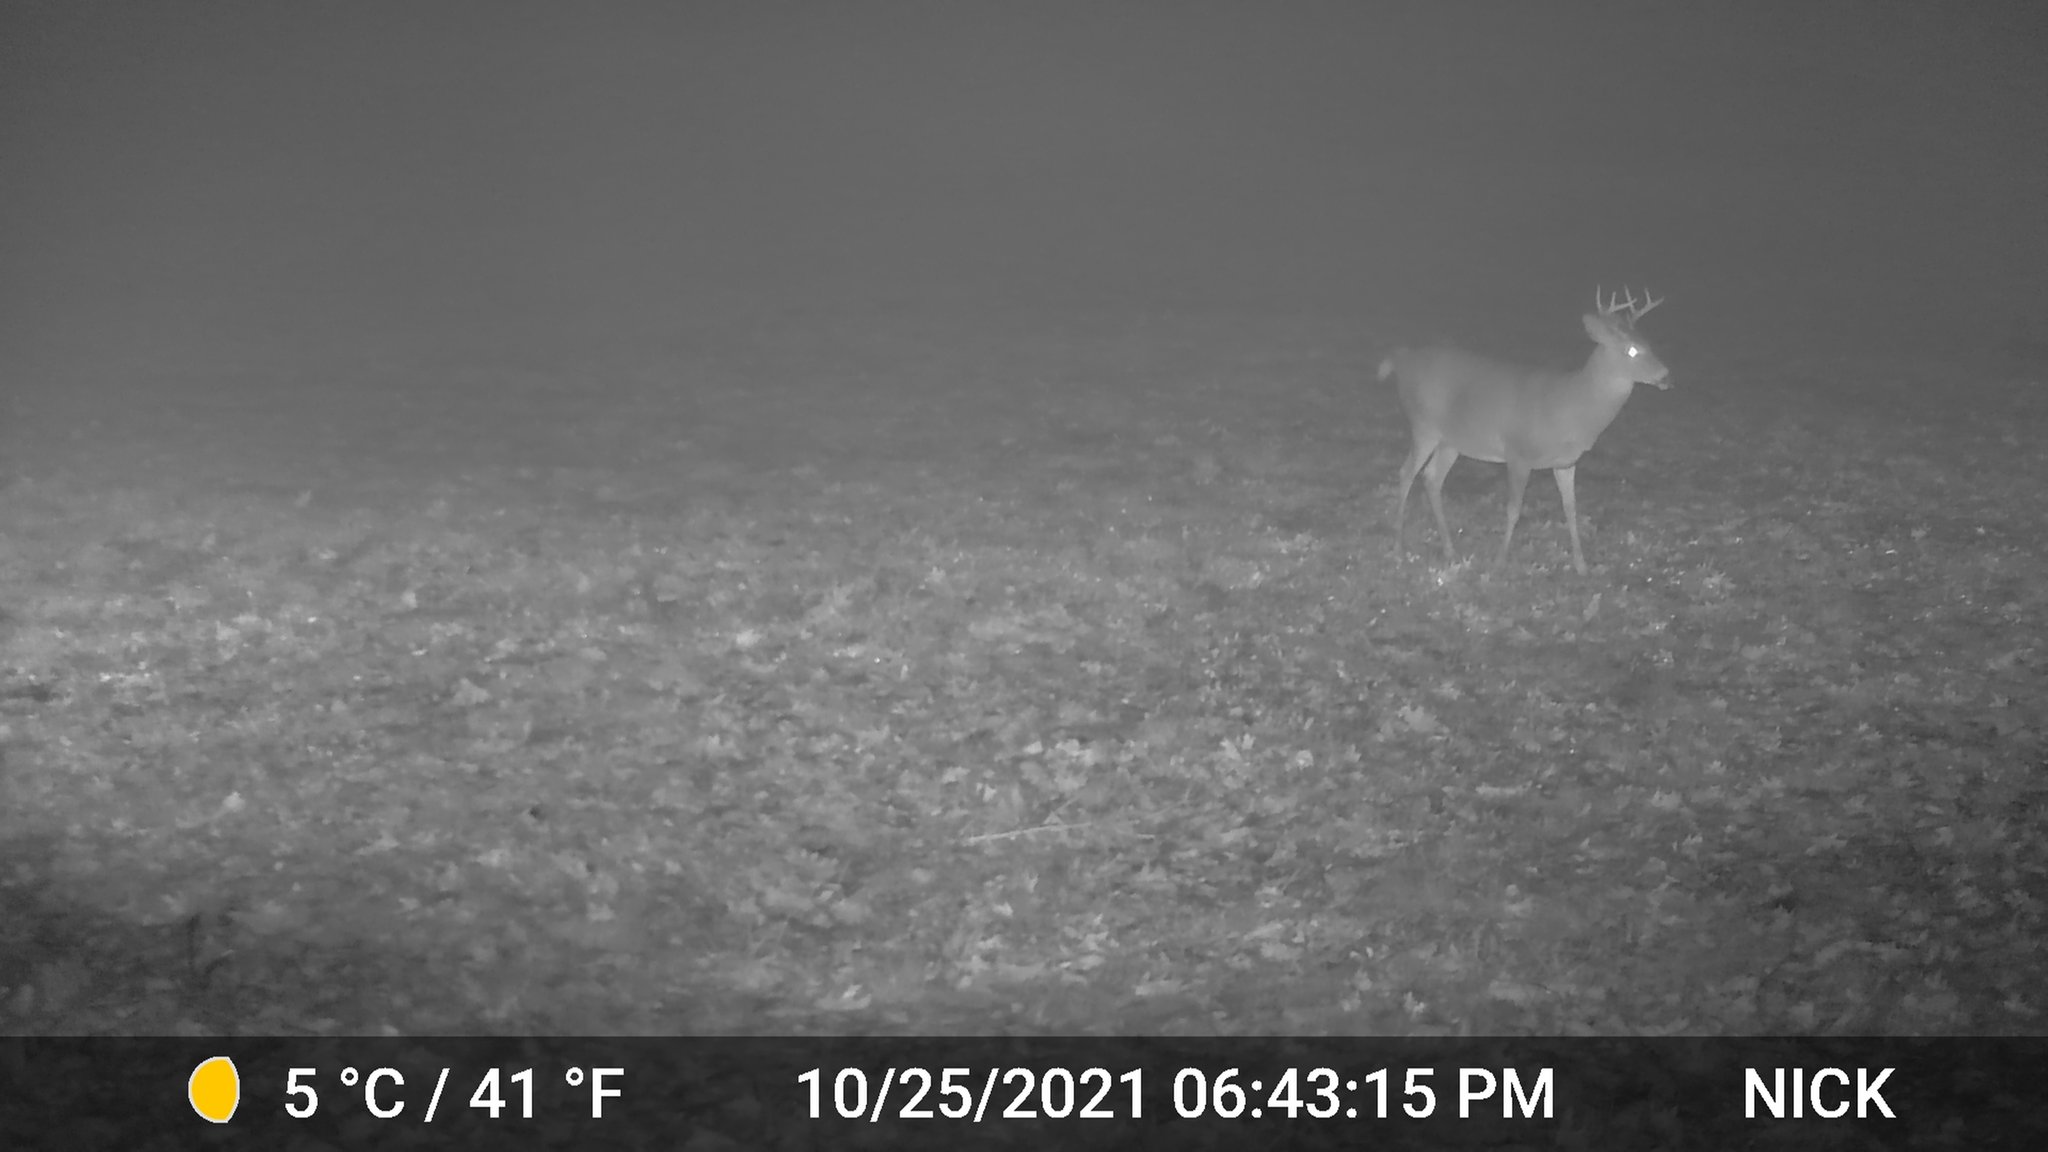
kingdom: Animalia
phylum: Chordata
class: Mammalia
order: Artiodactyla
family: Cervidae
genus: Odocoileus
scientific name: Odocoileus virginianus
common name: White-tailed deer
